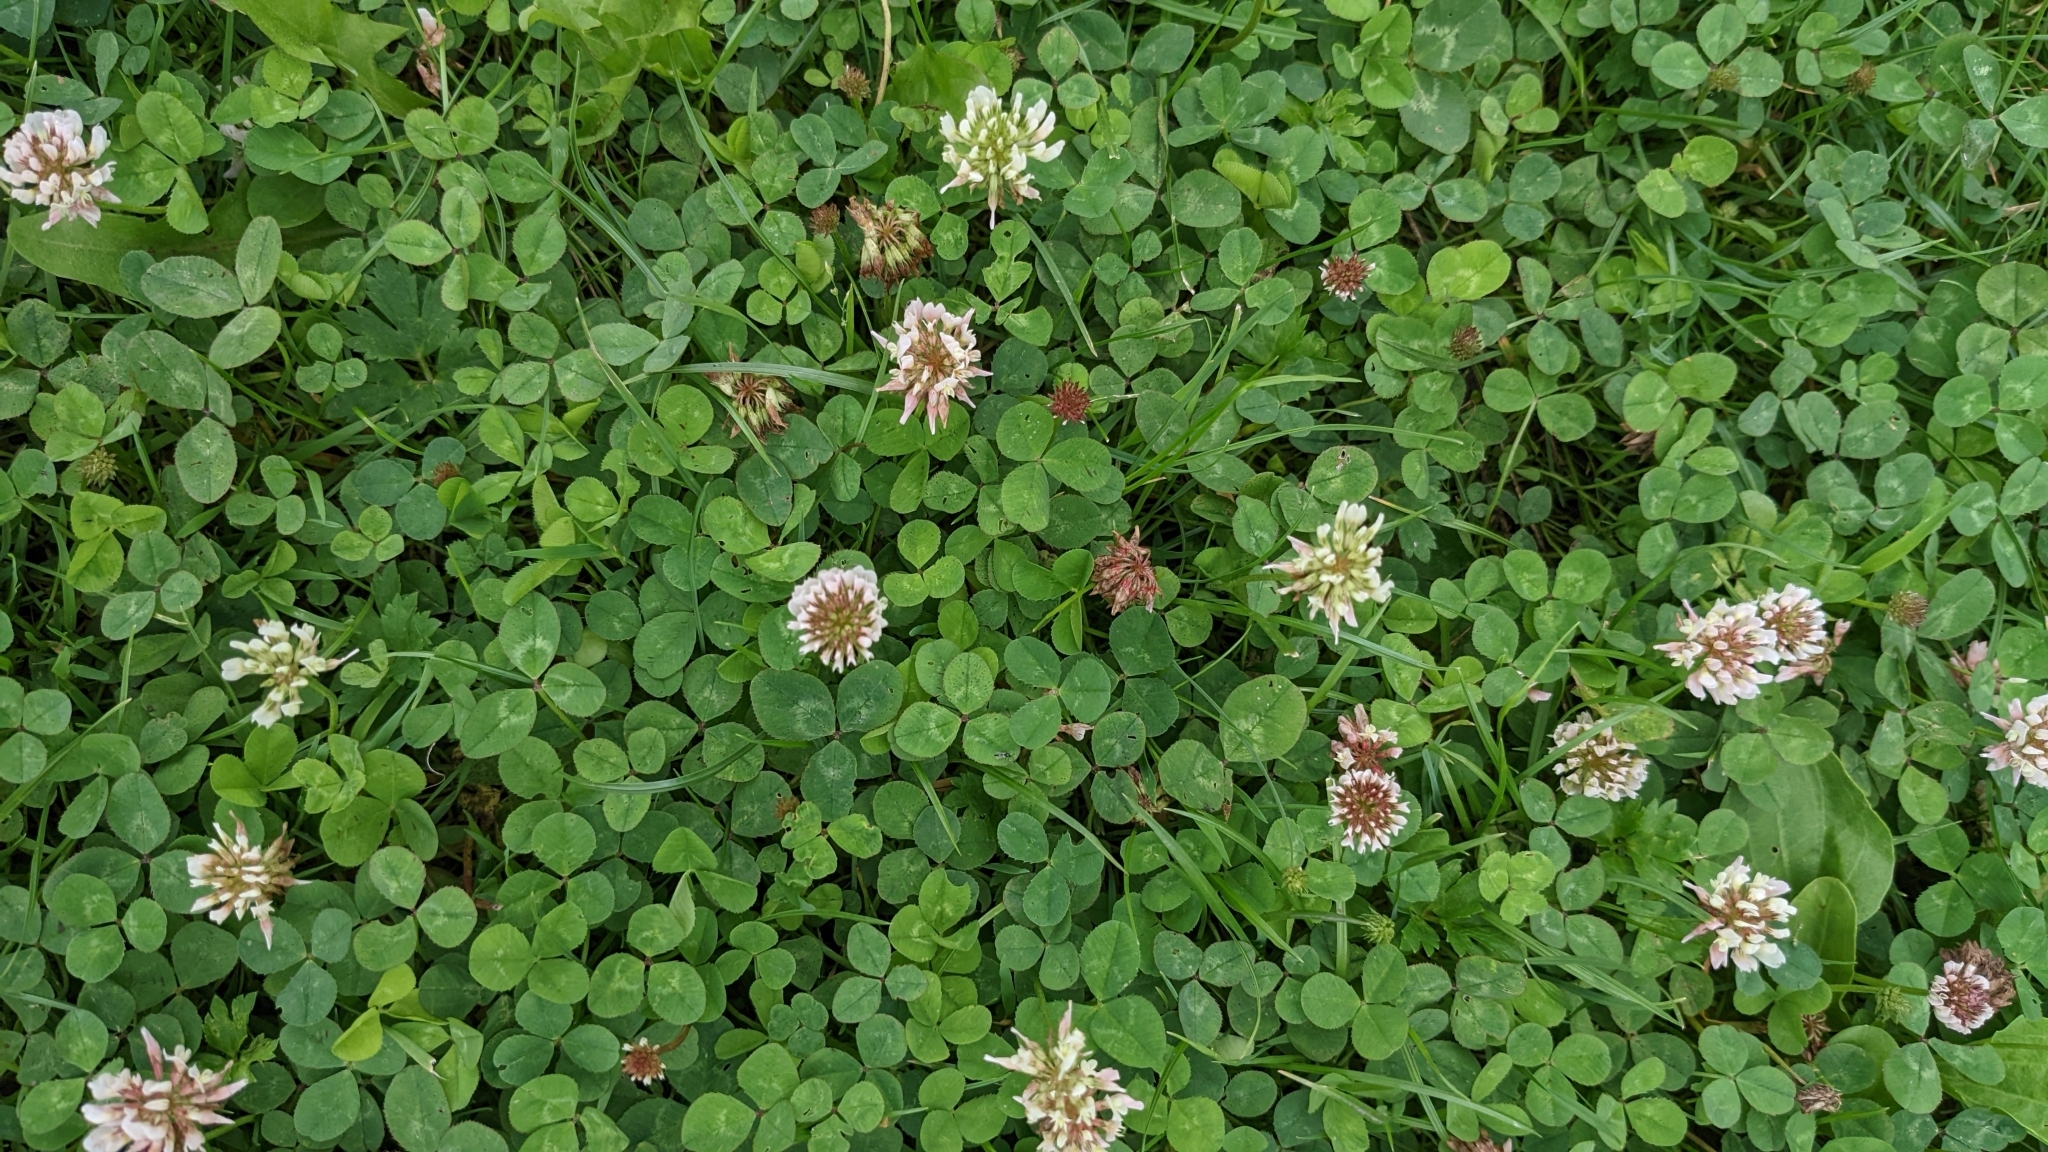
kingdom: Plantae
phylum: Tracheophyta
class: Magnoliopsida
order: Fabales
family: Fabaceae
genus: Trifolium
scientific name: Trifolium repens
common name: White clover
